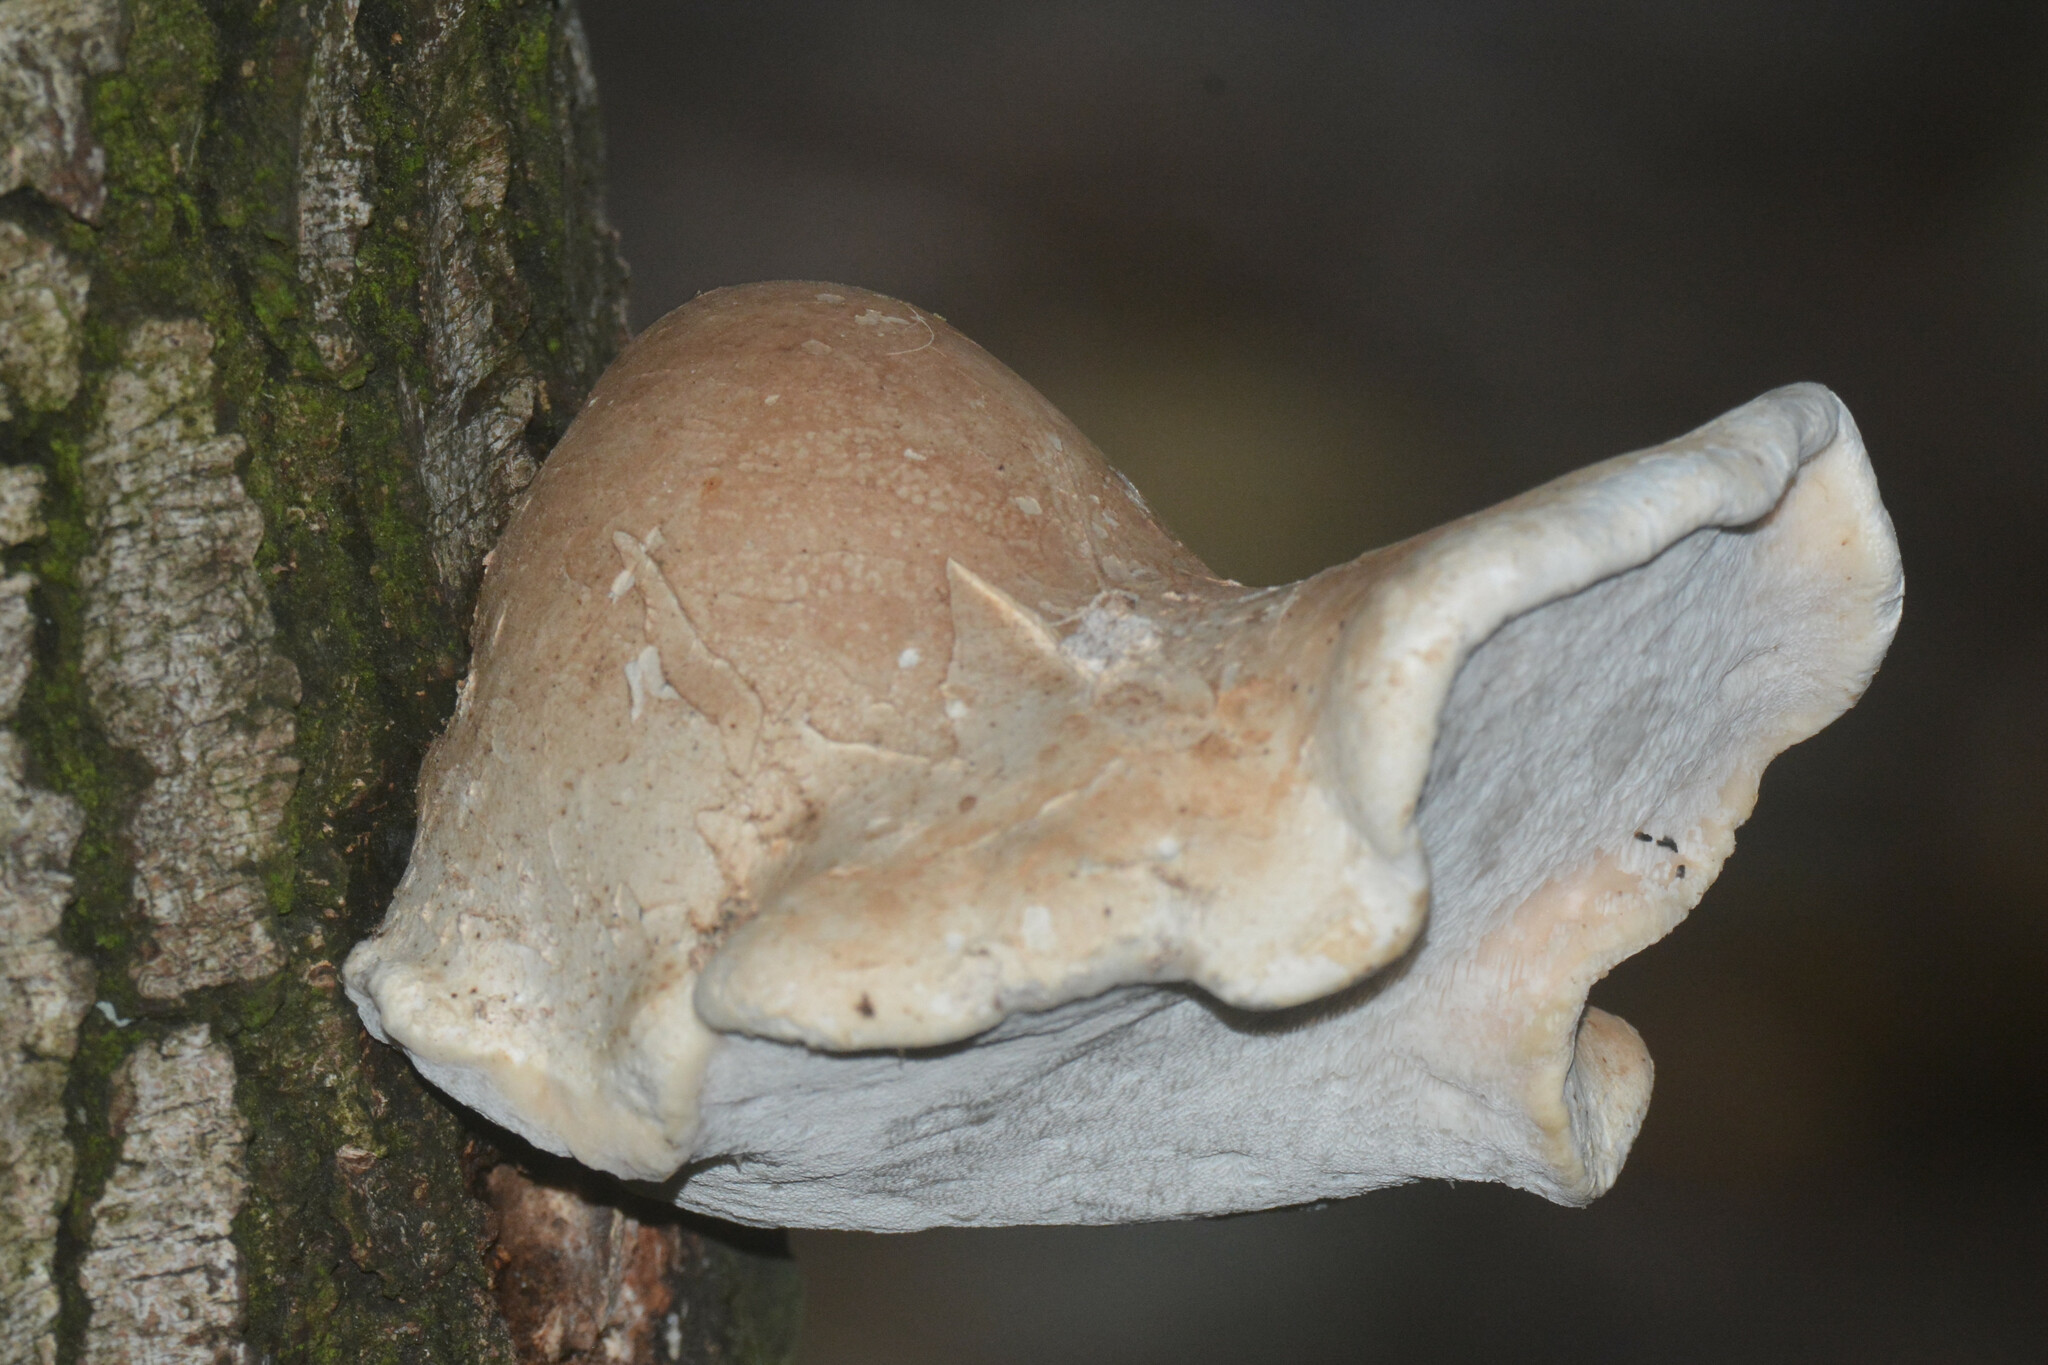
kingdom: Fungi
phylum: Basidiomycota
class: Agaricomycetes
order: Polyporales
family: Fomitopsidaceae
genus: Fomitopsis
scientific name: Fomitopsis betulina
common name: Birch polypore
